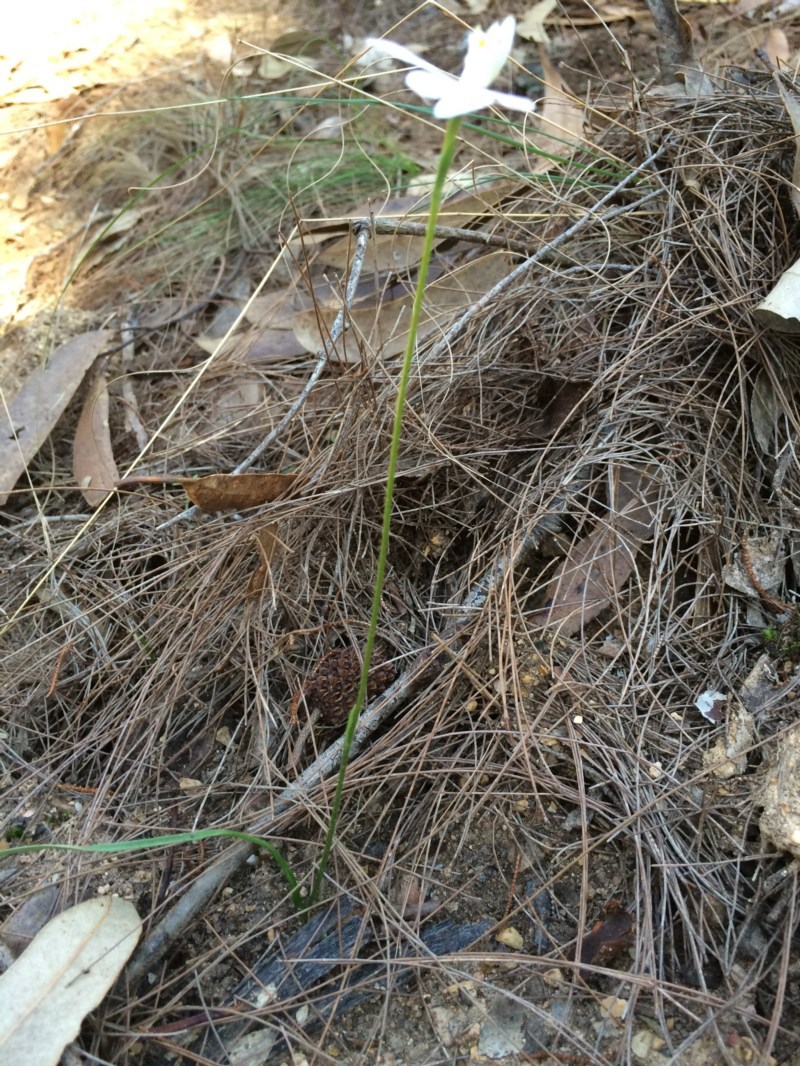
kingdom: Plantae
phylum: Tracheophyta
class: Liliopsida
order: Asparagales
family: Orchidaceae
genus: Caladenia
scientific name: Caladenia catenata
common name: White caladenia
